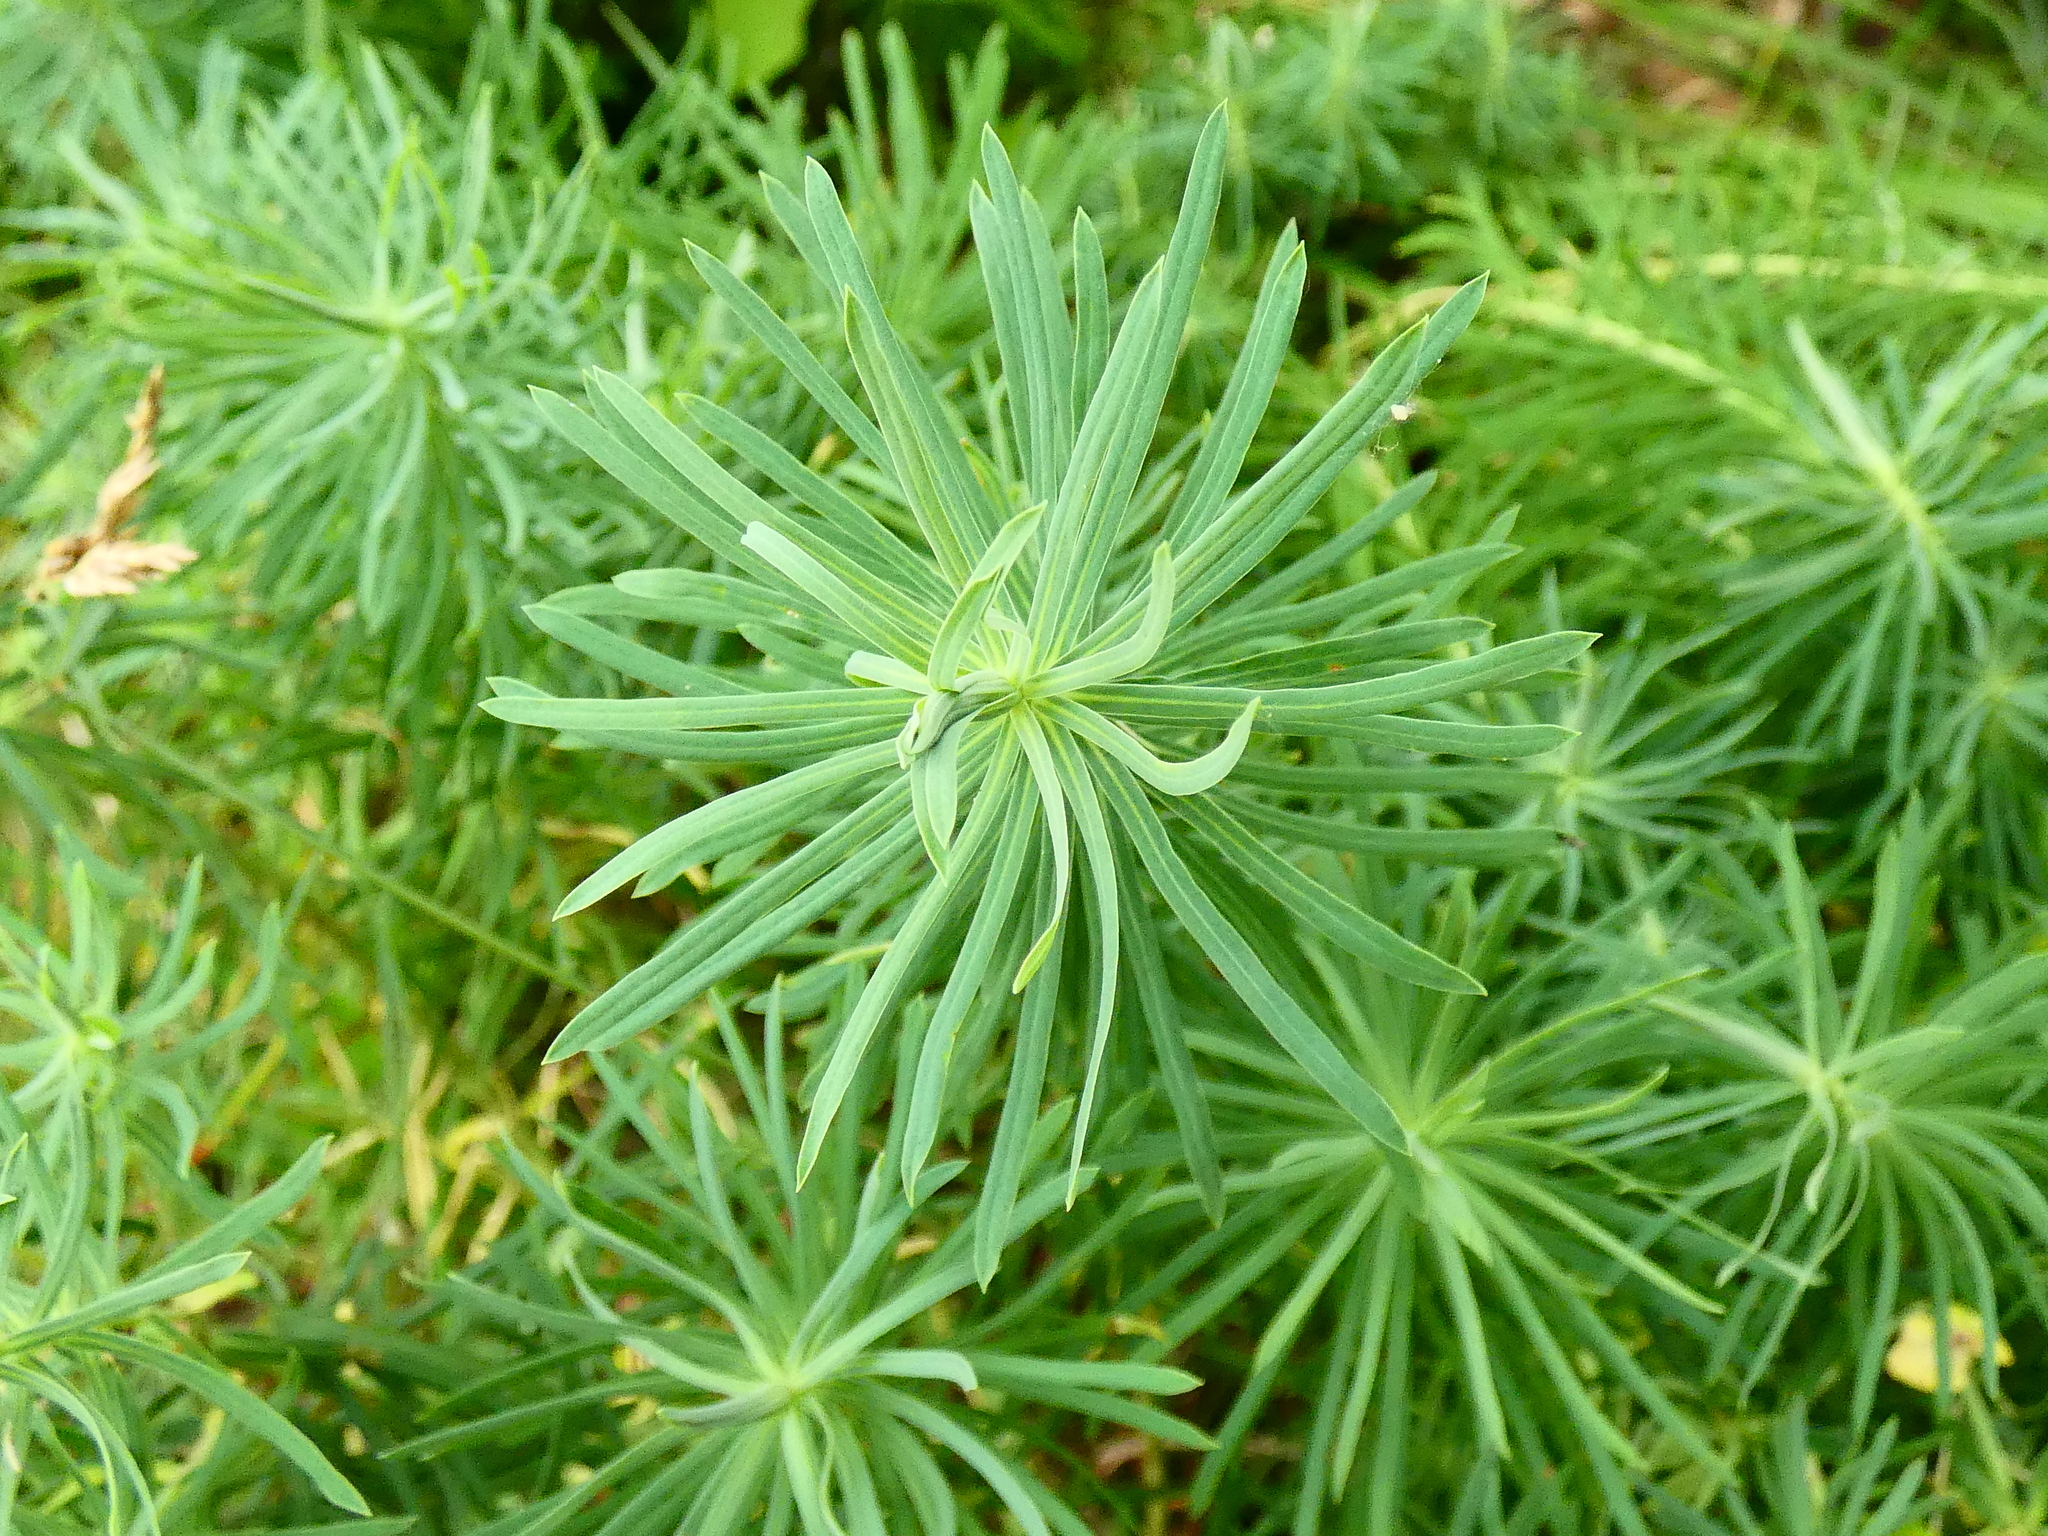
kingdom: Plantae
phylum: Tracheophyta
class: Magnoliopsida
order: Malpighiales
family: Euphorbiaceae
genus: Euphorbia
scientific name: Euphorbia cyparissias
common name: Cypress spurge
